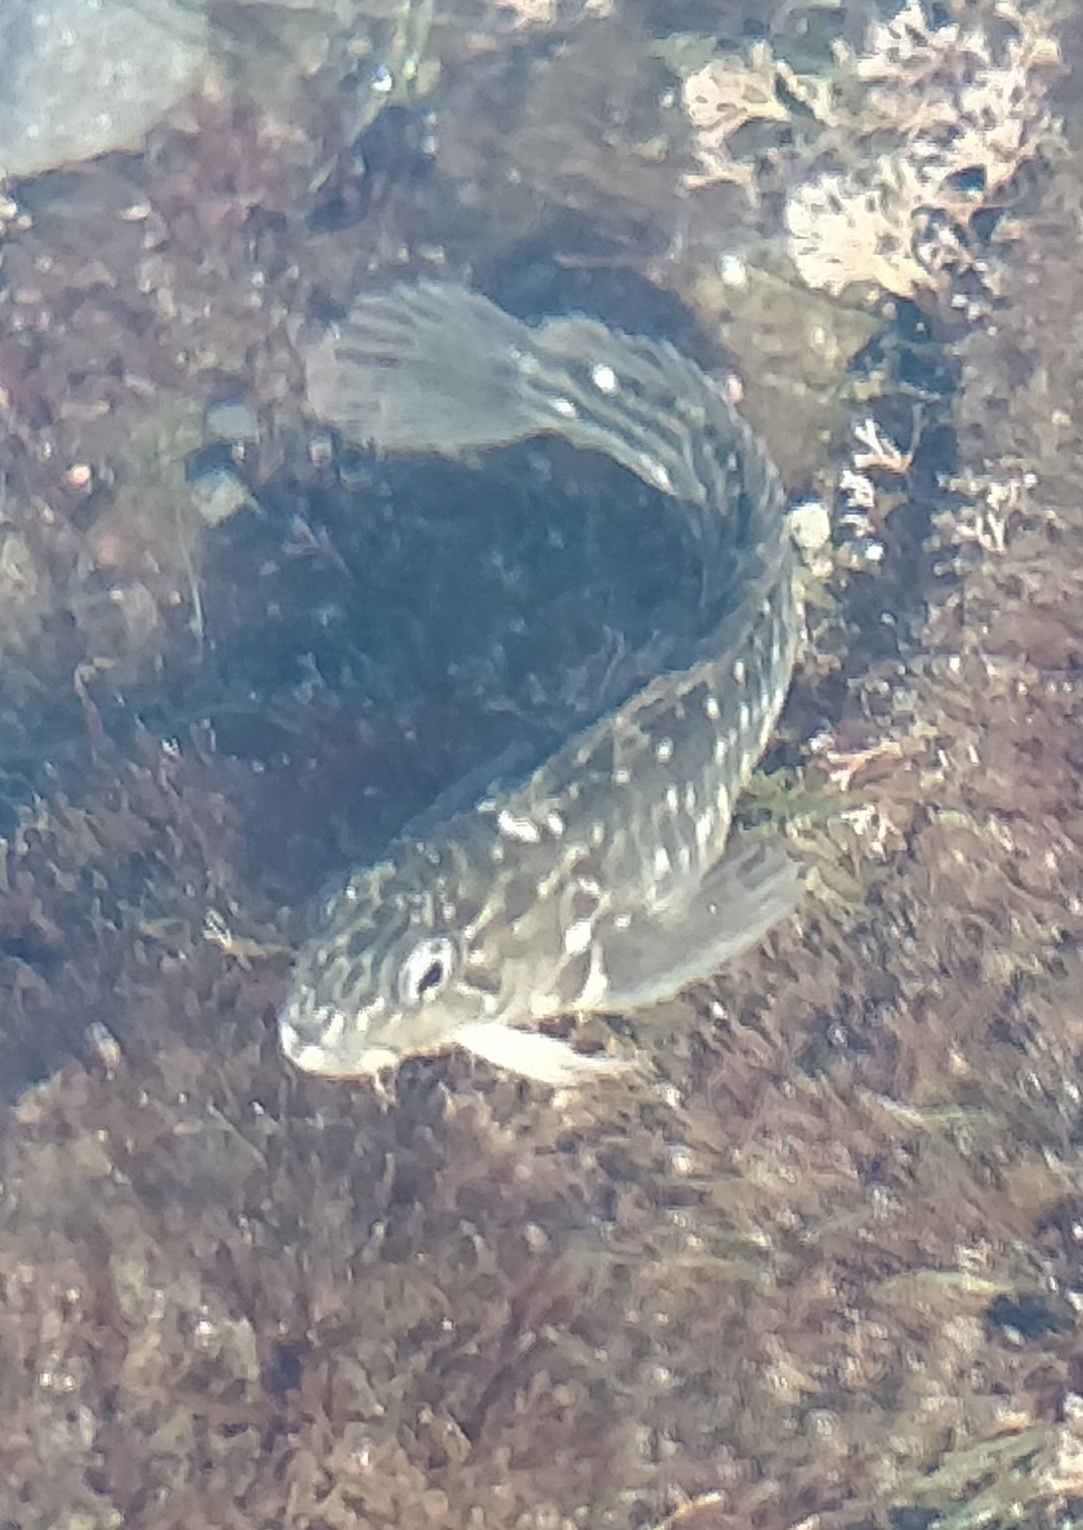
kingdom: Animalia
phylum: Chordata
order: Perciformes
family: Blenniidae
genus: Parablennius
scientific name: Parablennius parvicornis
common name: Rock-pool blenny
